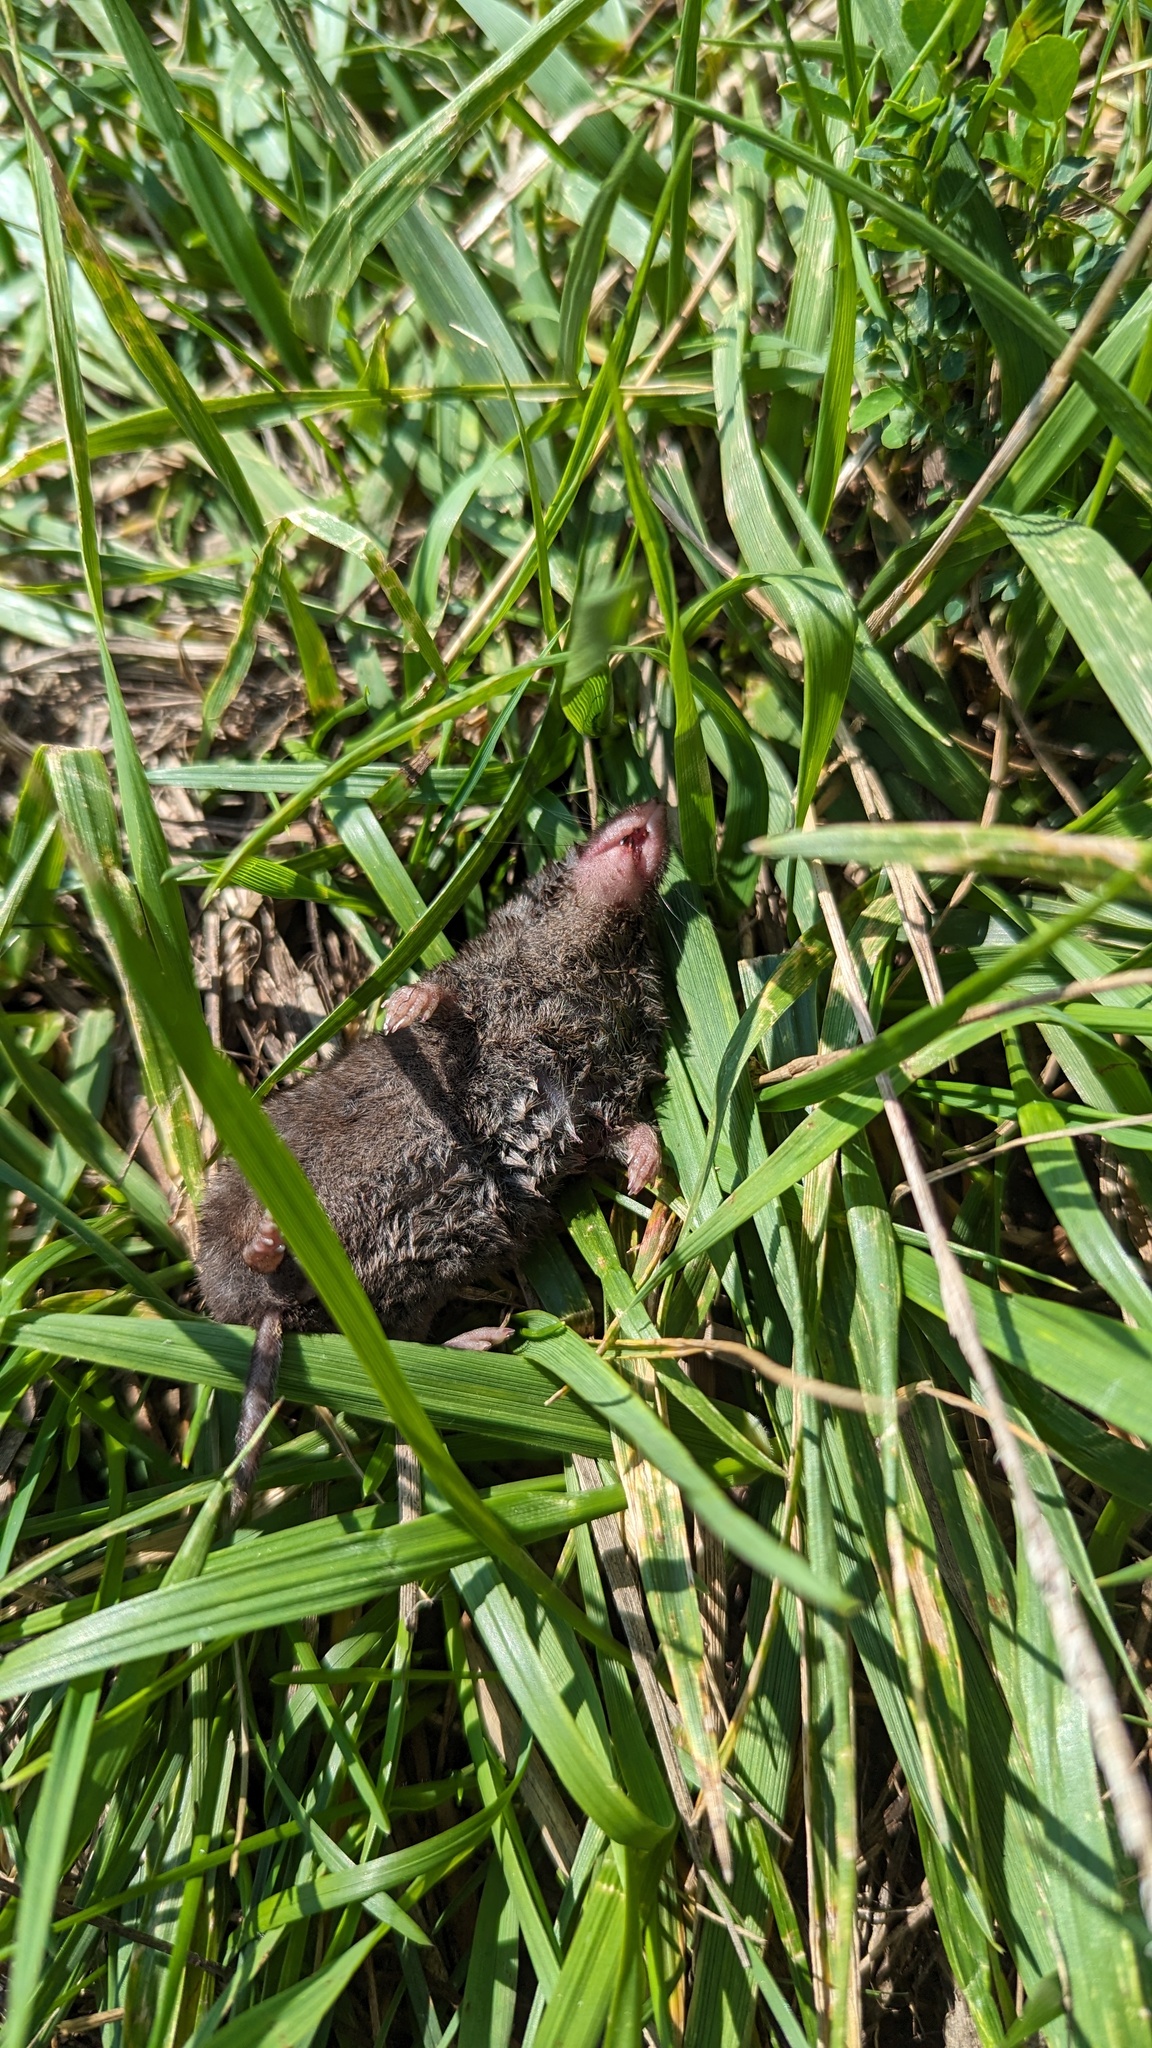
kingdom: Animalia
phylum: Chordata
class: Mammalia
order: Soricomorpha
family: Soricidae
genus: Blarina
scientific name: Blarina brevicauda
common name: Northern short-tailed shrew
